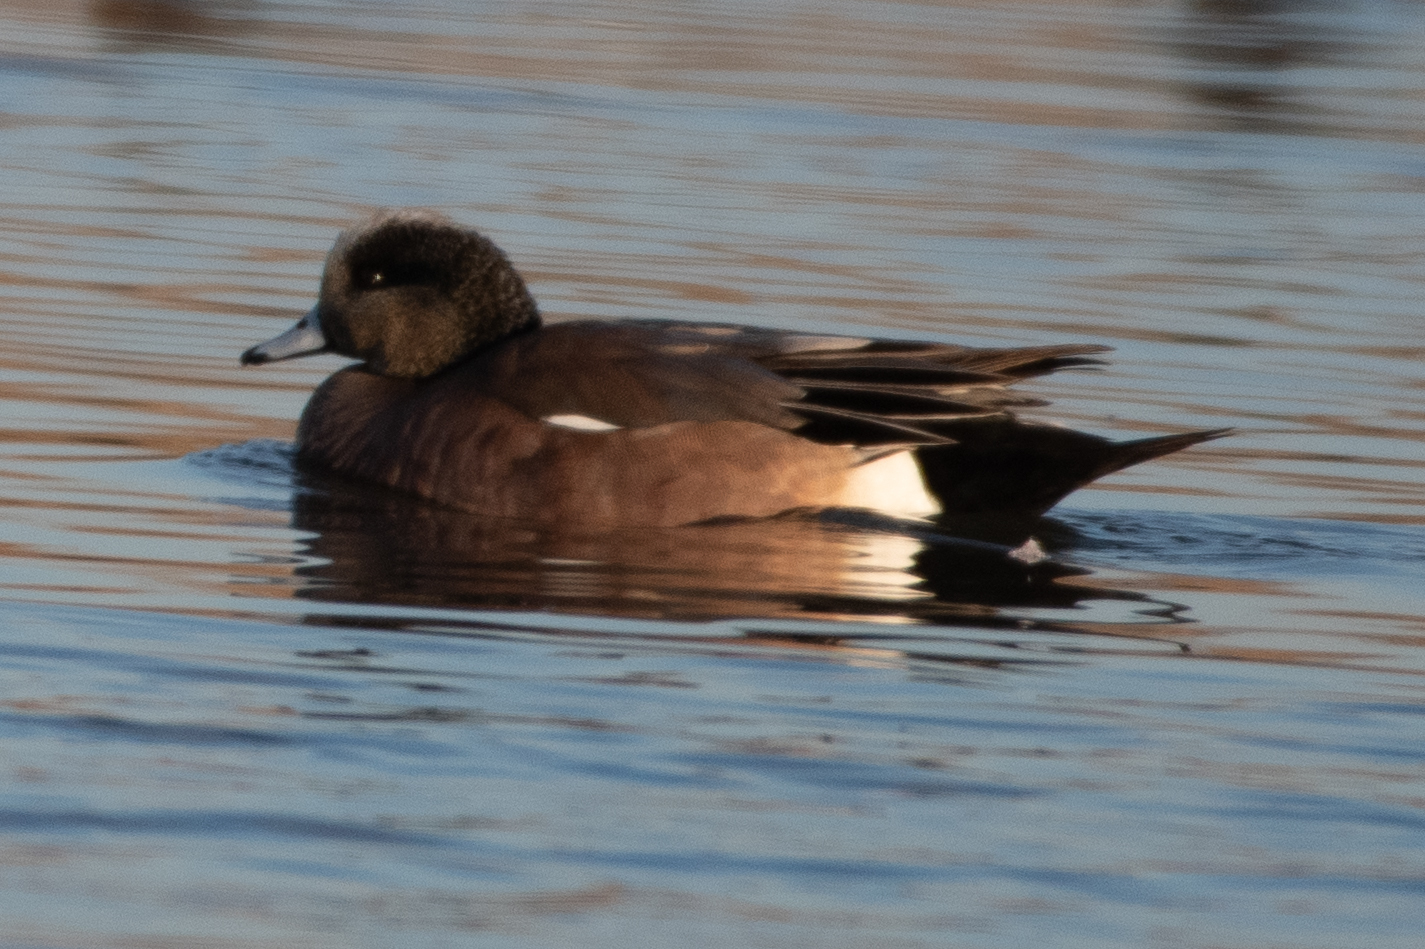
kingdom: Animalia
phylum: Chordata
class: Aves
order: Anseriformes
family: Anatidae
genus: Mareca
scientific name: Mareca americana
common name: American wigeon
